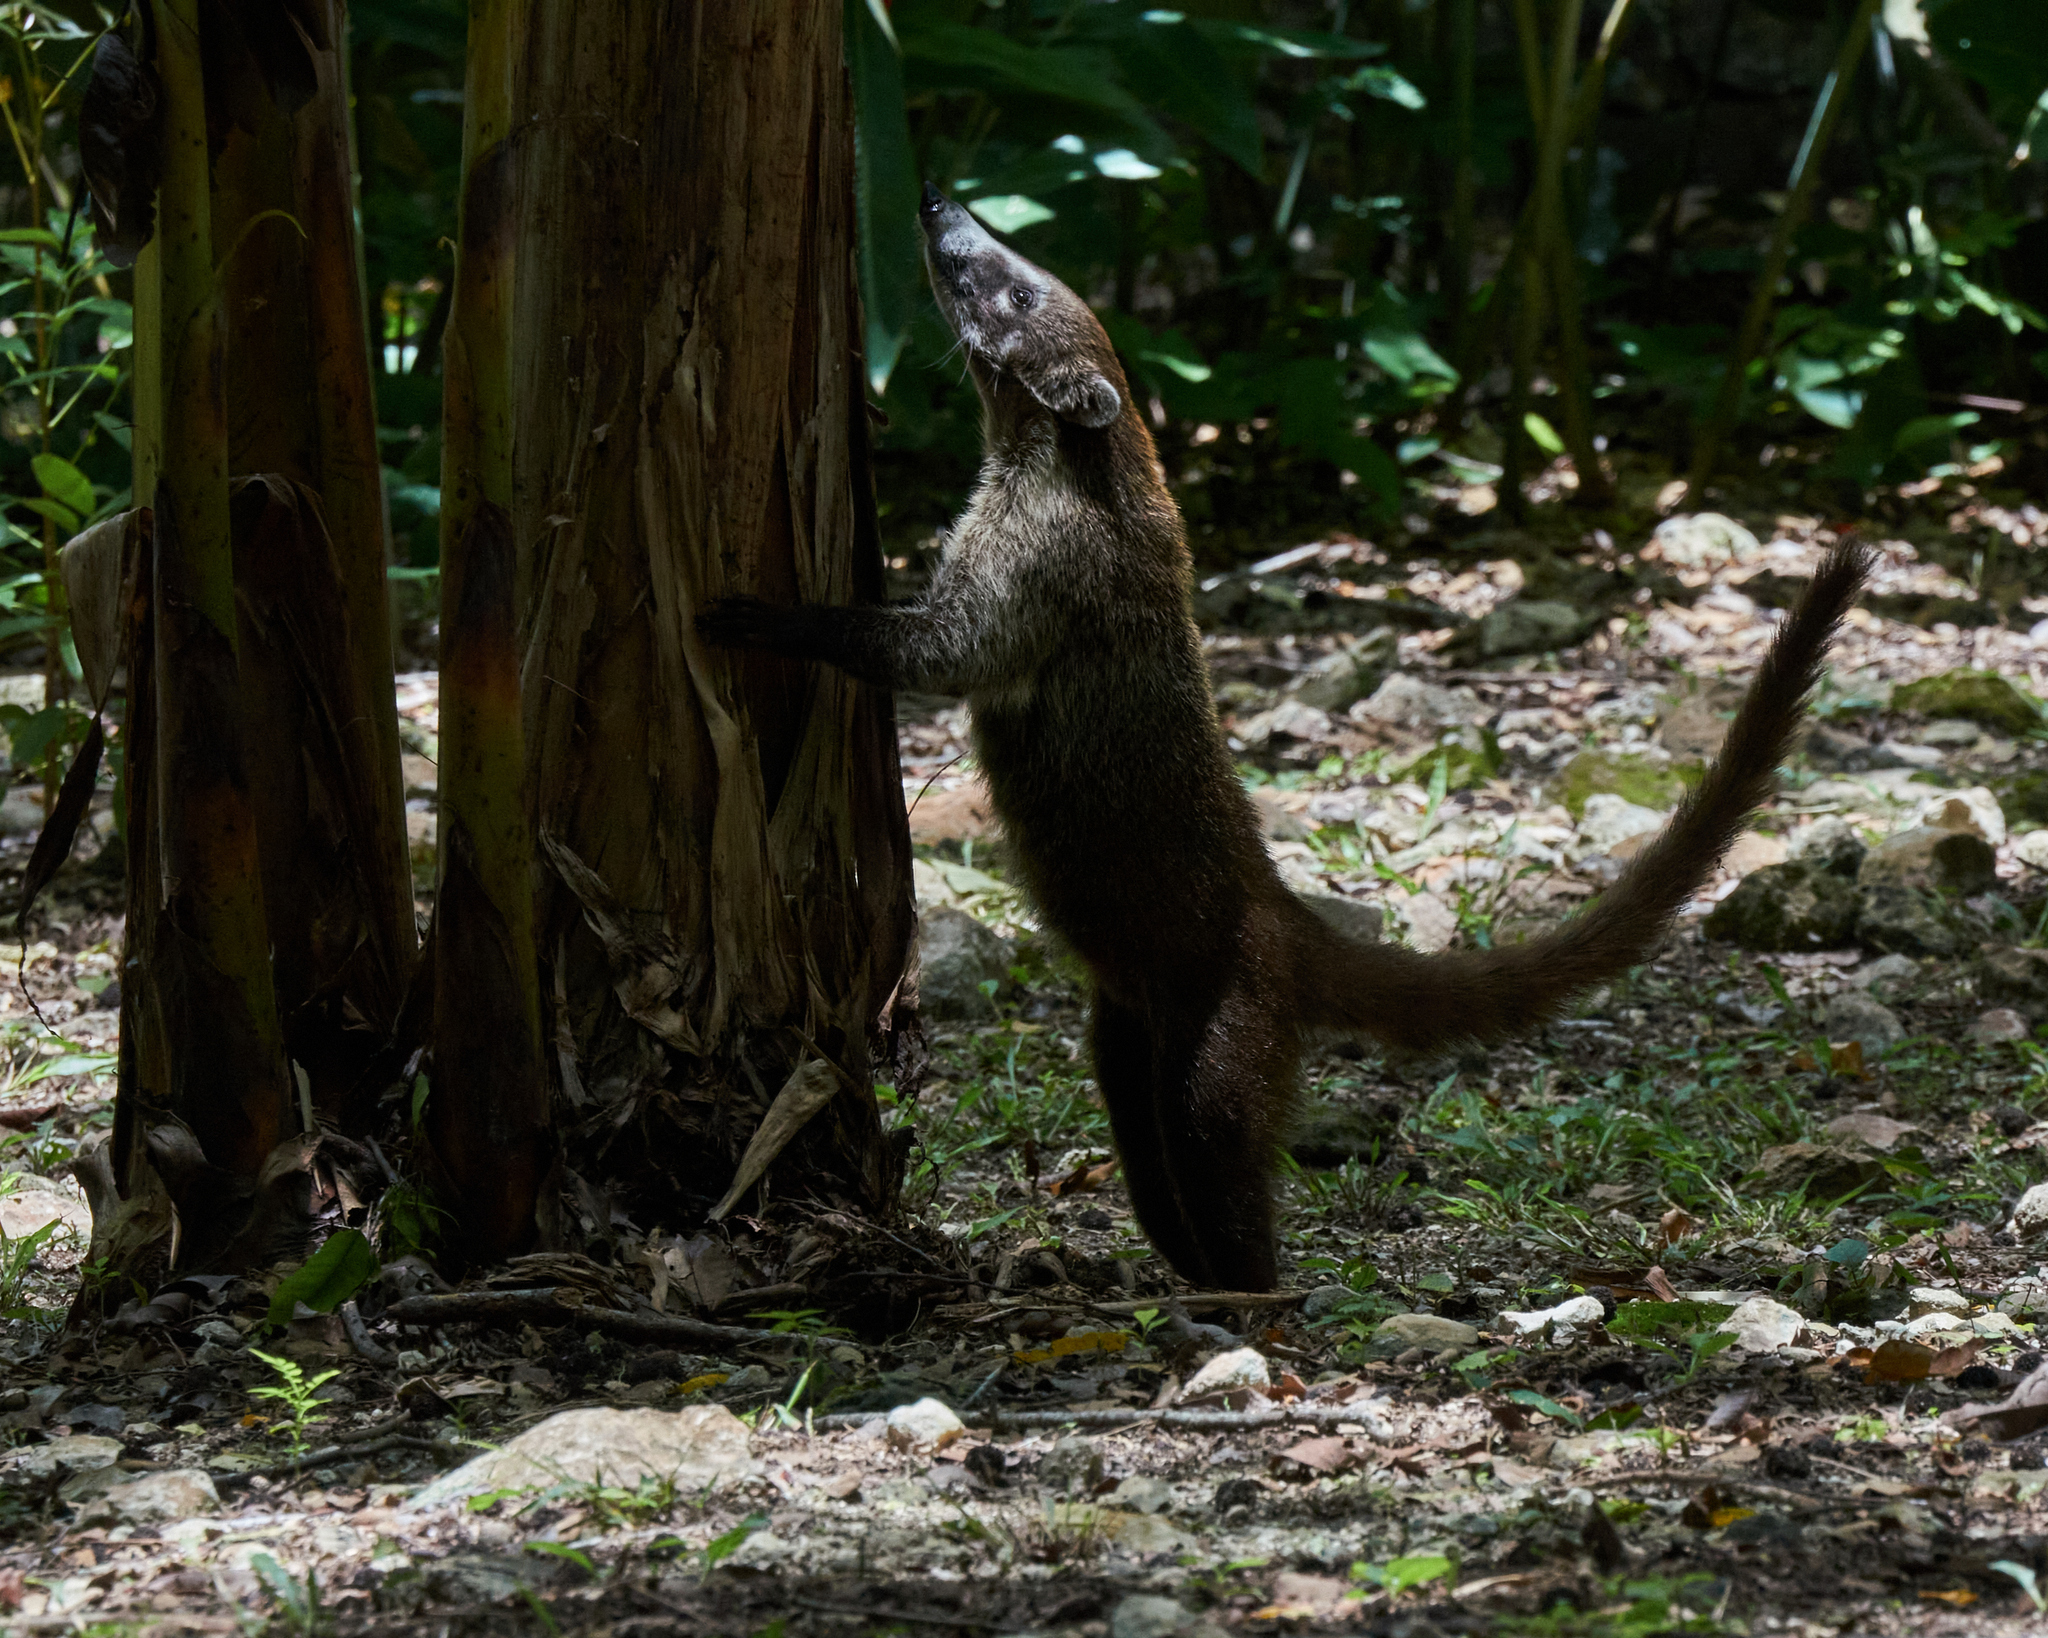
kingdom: Animalia
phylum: Chordata
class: Mammalia
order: Carnivora
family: Procyonidae
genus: Nasua
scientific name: Nasua narica
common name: White-nosed coati
